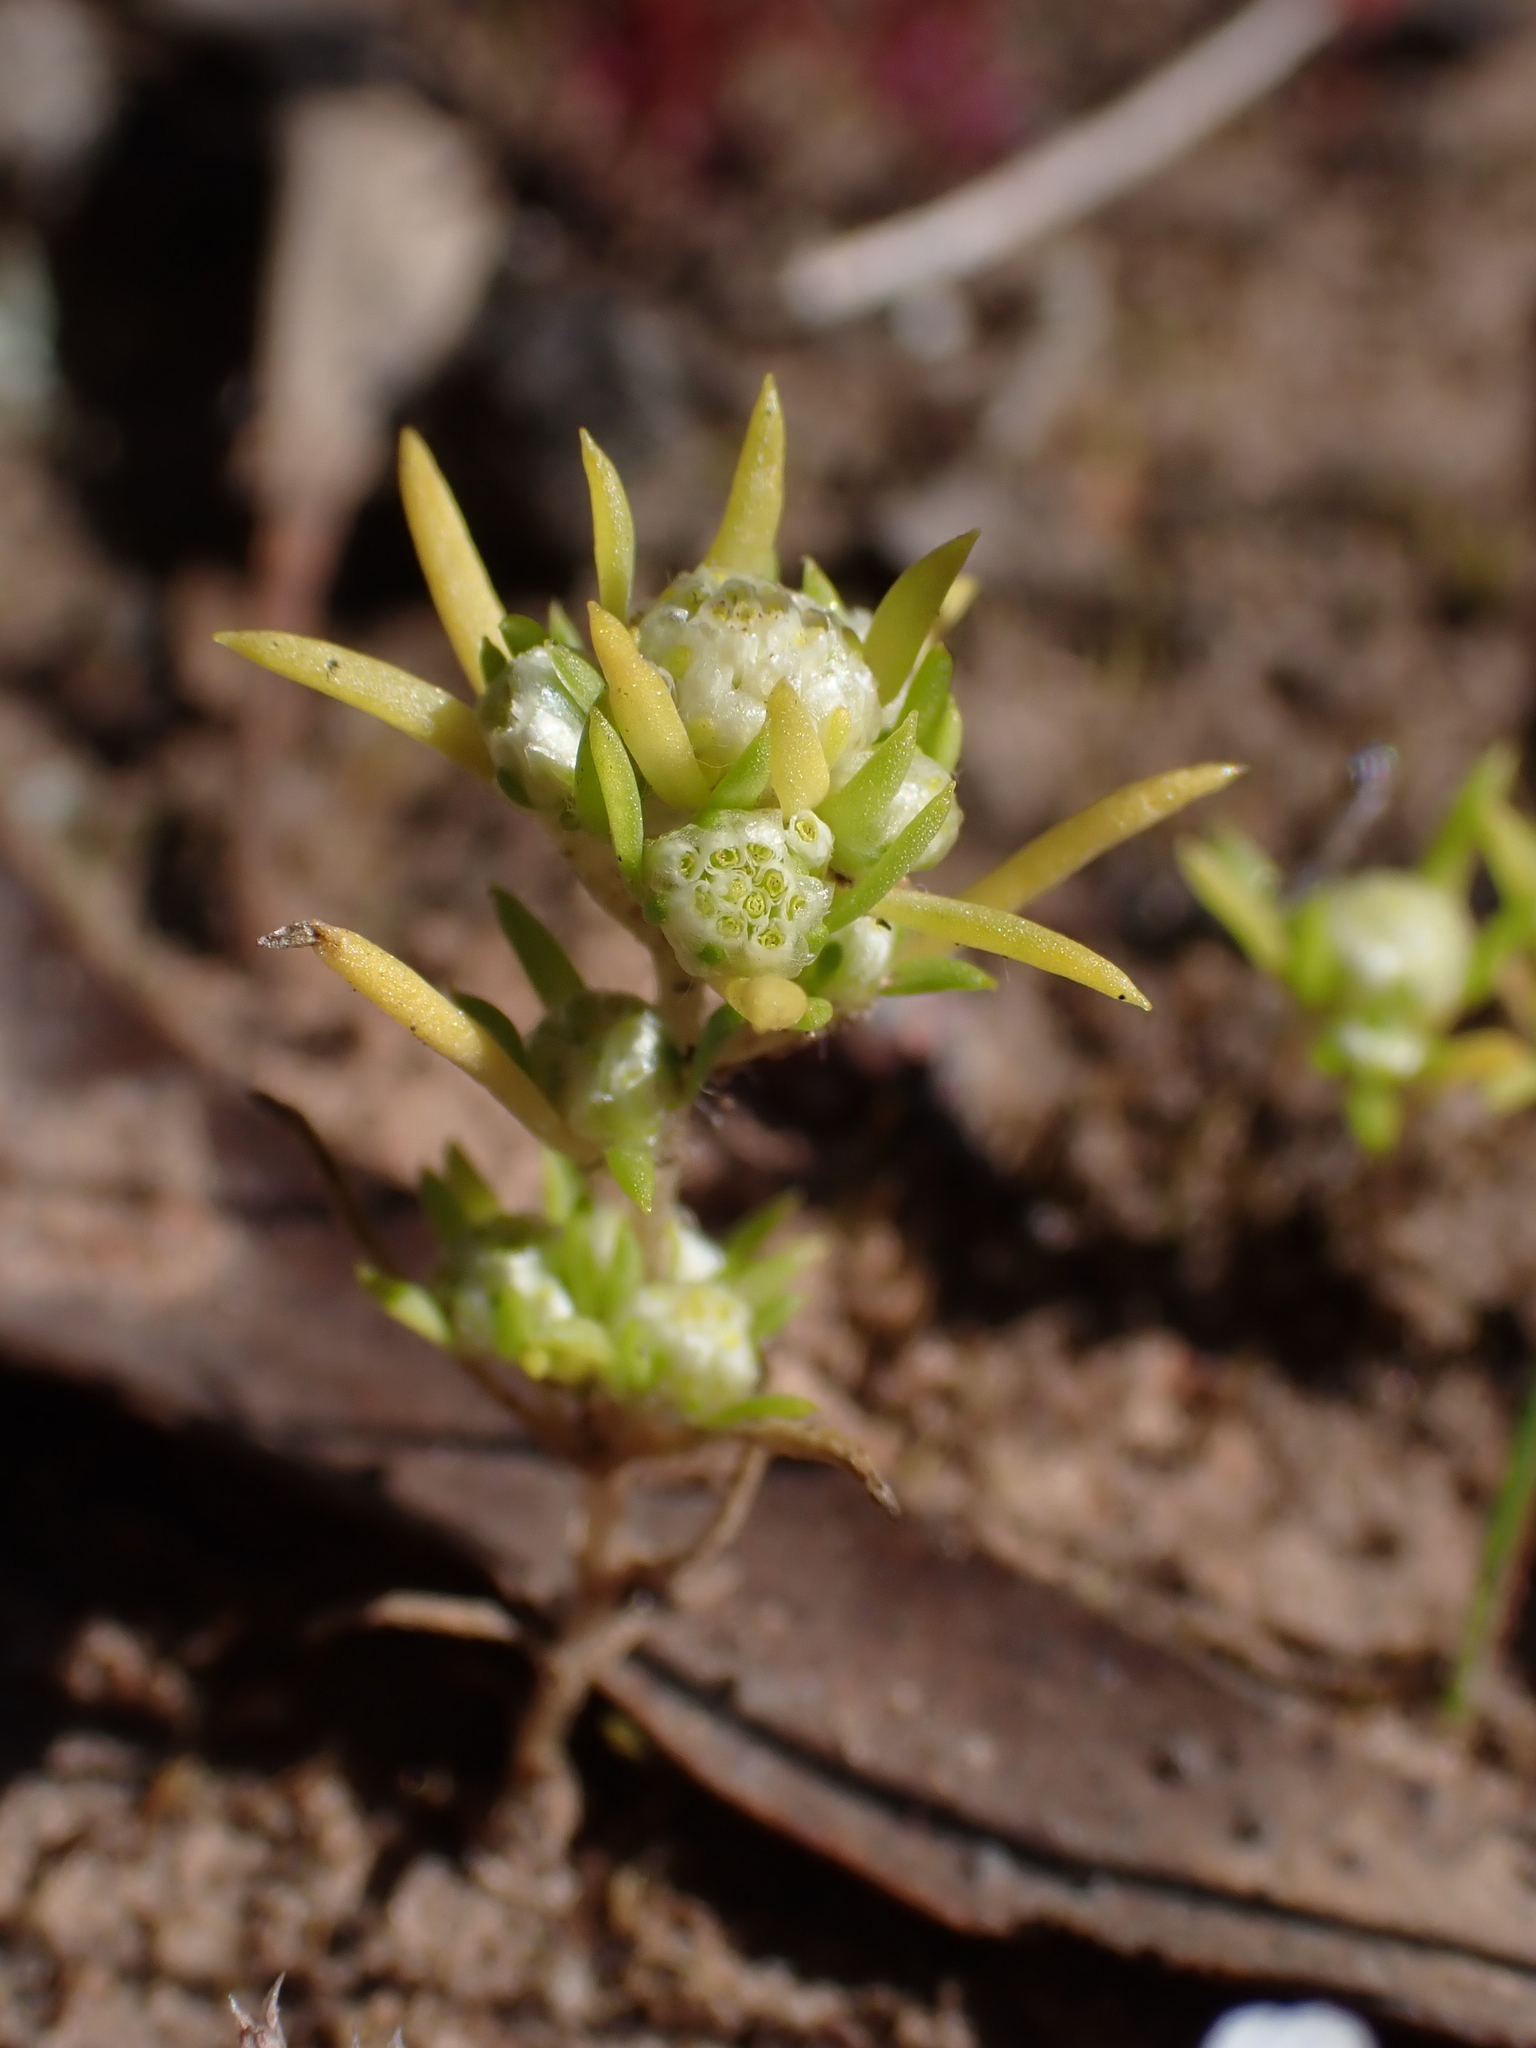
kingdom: Plantae
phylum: Tracheophyta
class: Magnoliopsida
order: Asterales
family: Asteraceae
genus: Siloxerus
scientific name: Siloxerus multiflorus
